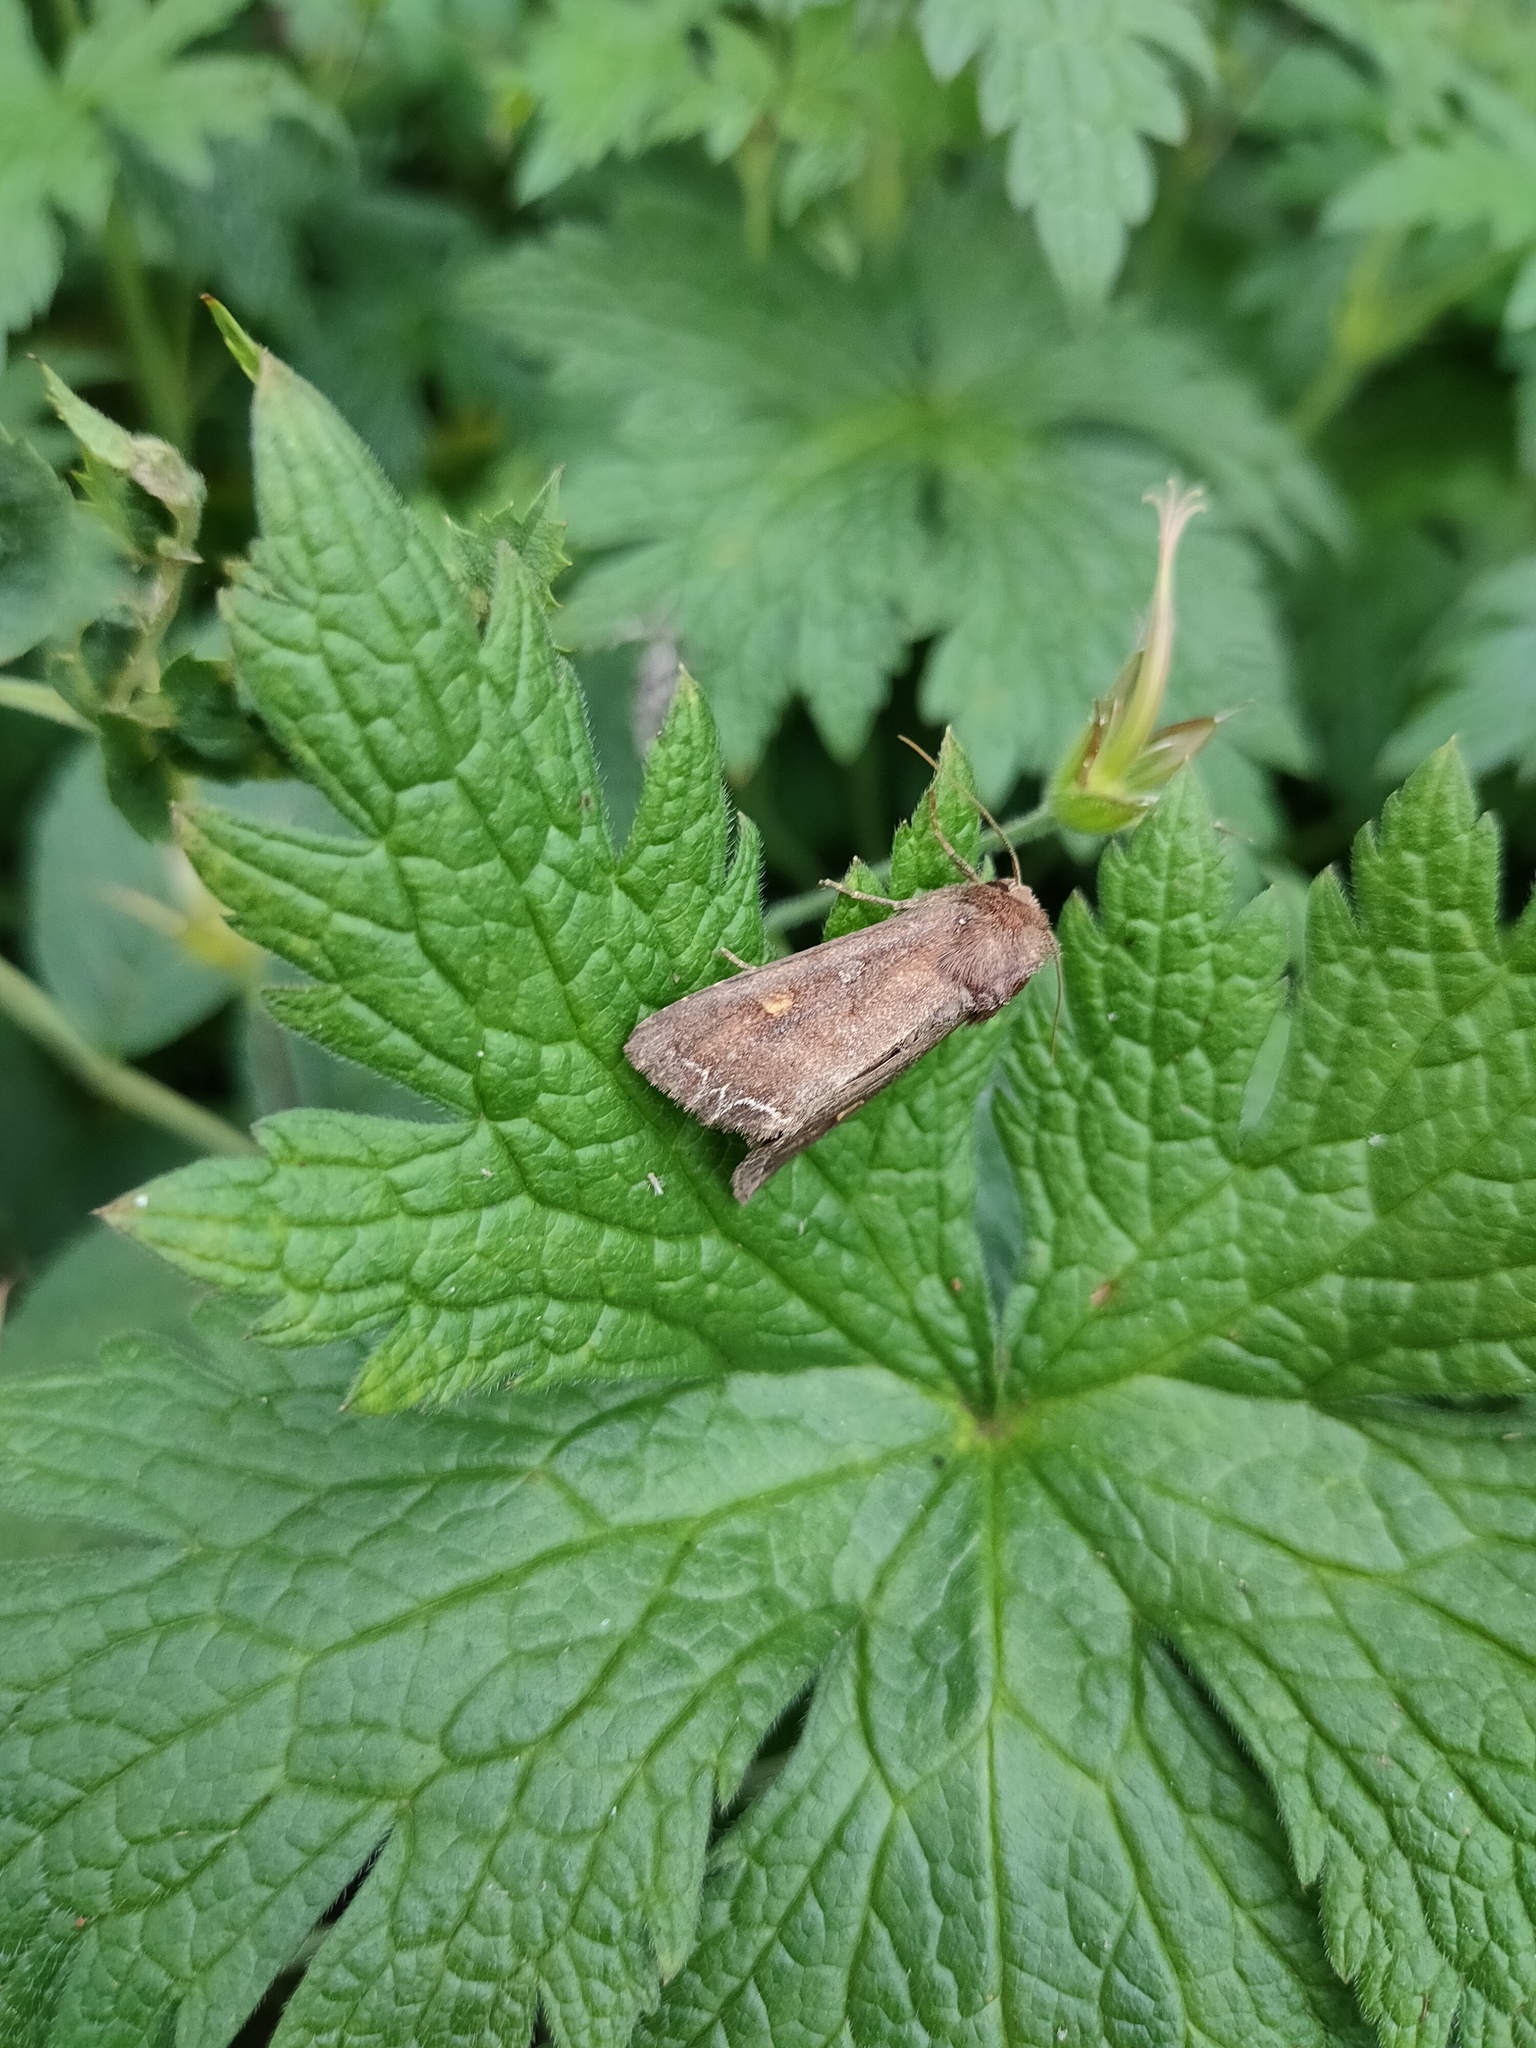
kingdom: Animalia
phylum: Arthropoda
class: Insecta
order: Lepidoptera
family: Noctuidae
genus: Lacanobia
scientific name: Lacanobia oleracea
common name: Bright-line brown-eye
